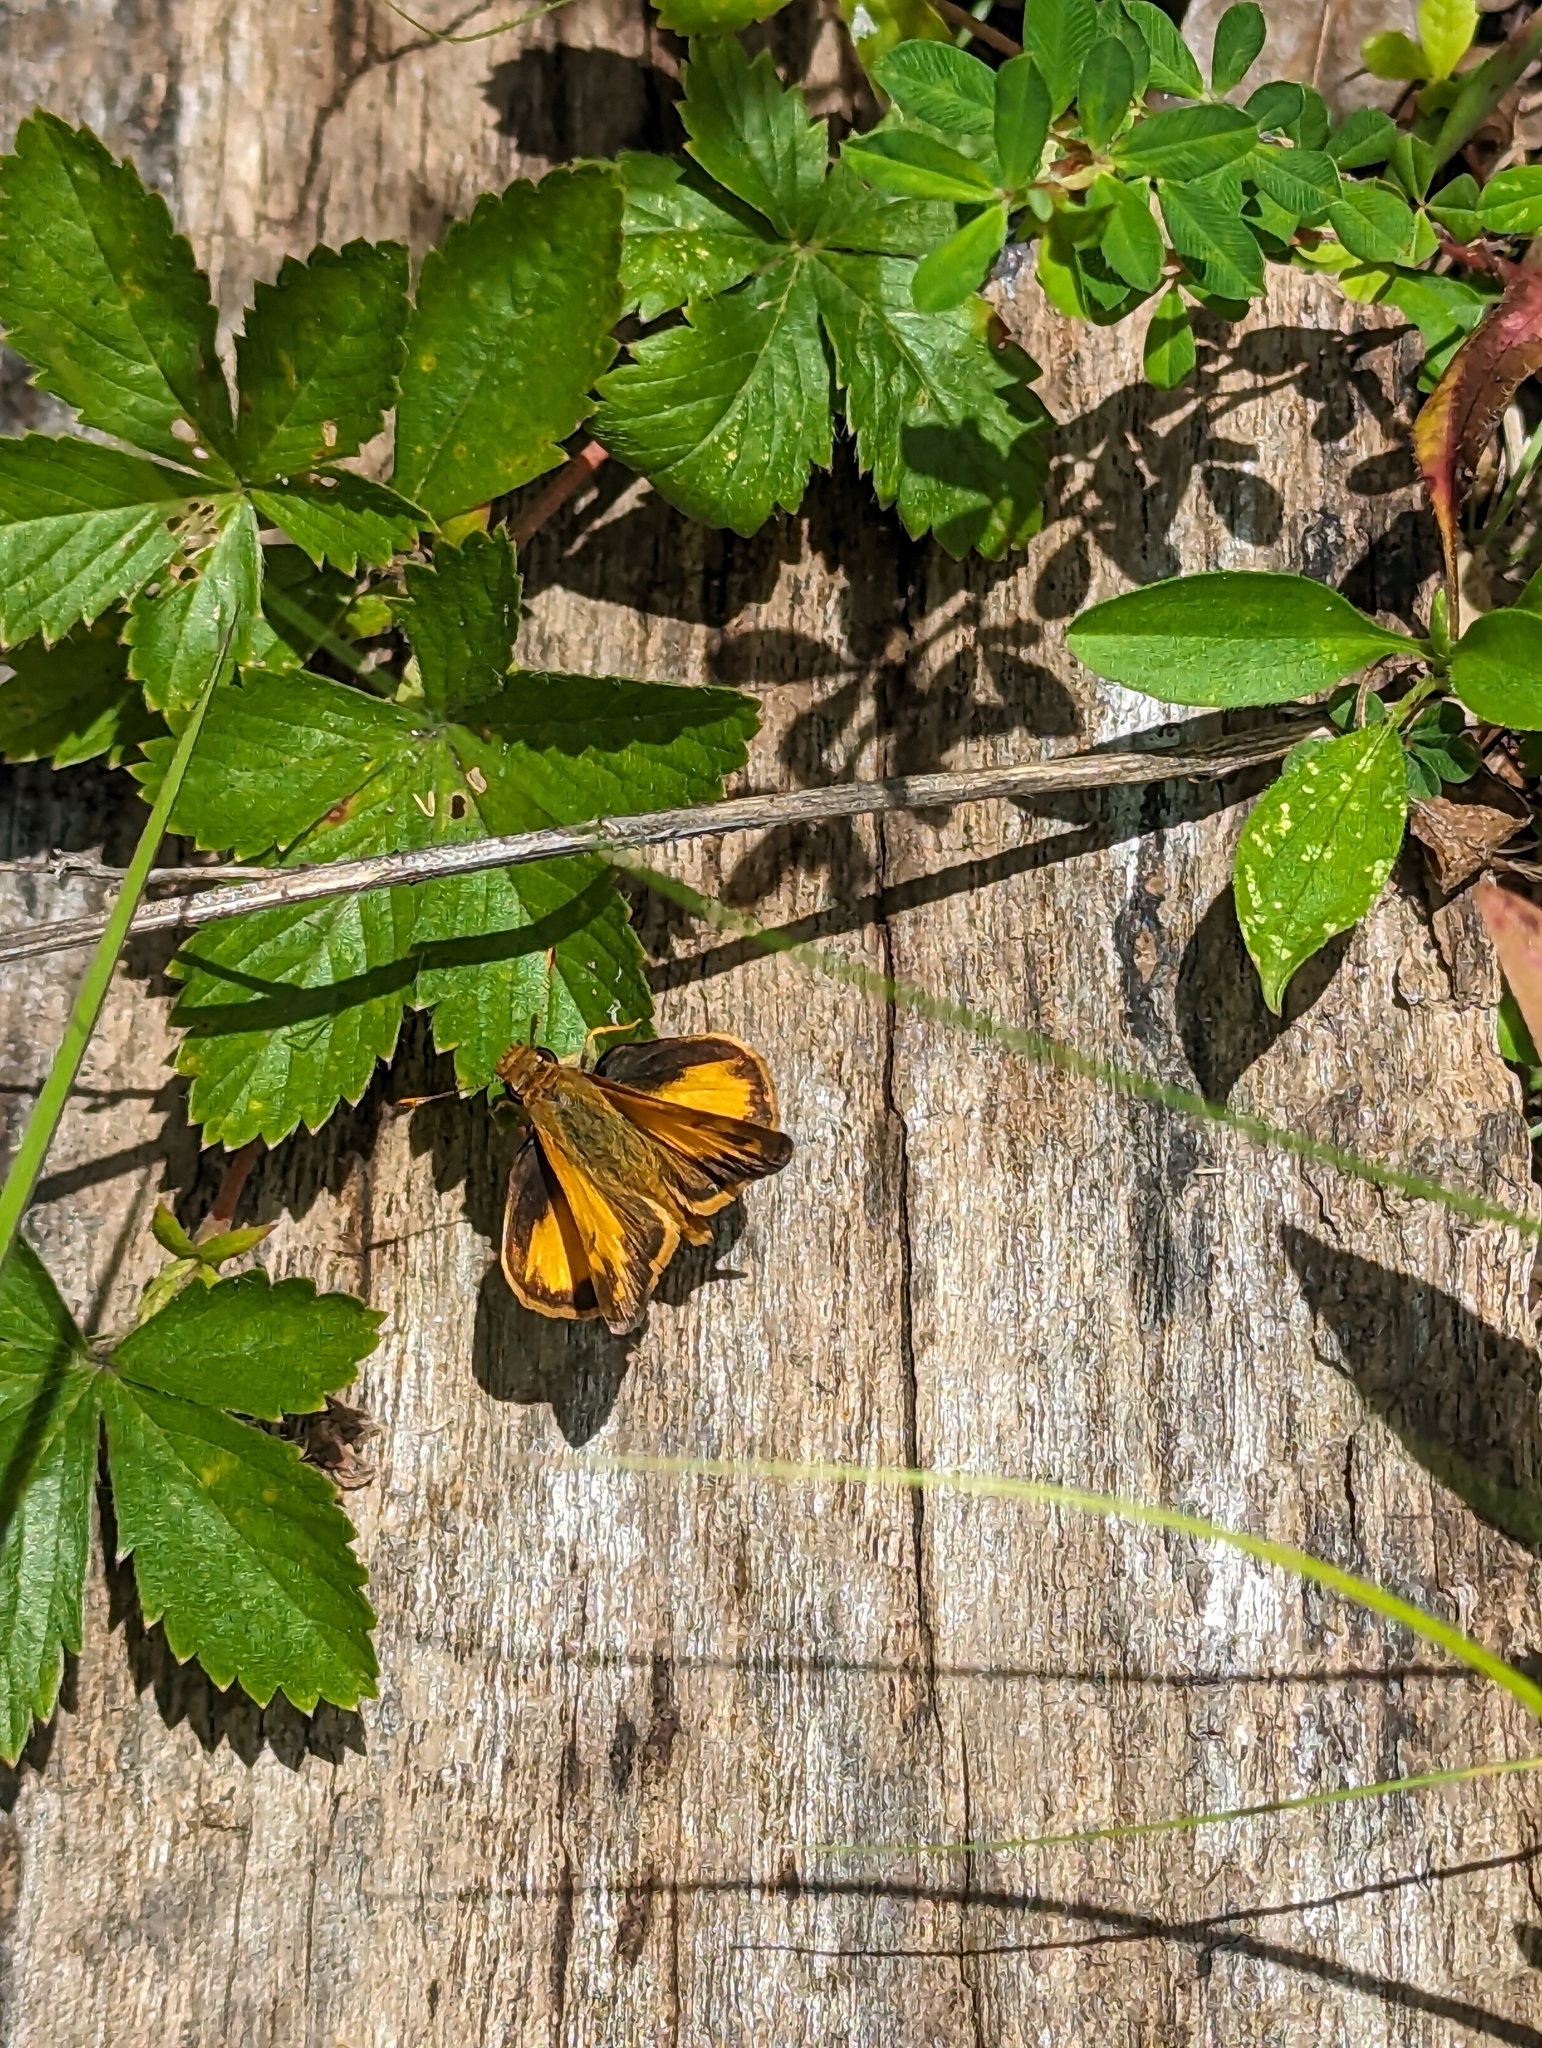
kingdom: Animalia
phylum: Arthropoda
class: Insecta
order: Lepidoptera
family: Hesperiidae
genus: Lon
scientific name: Lon zabulon
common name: Zabulon skipper
